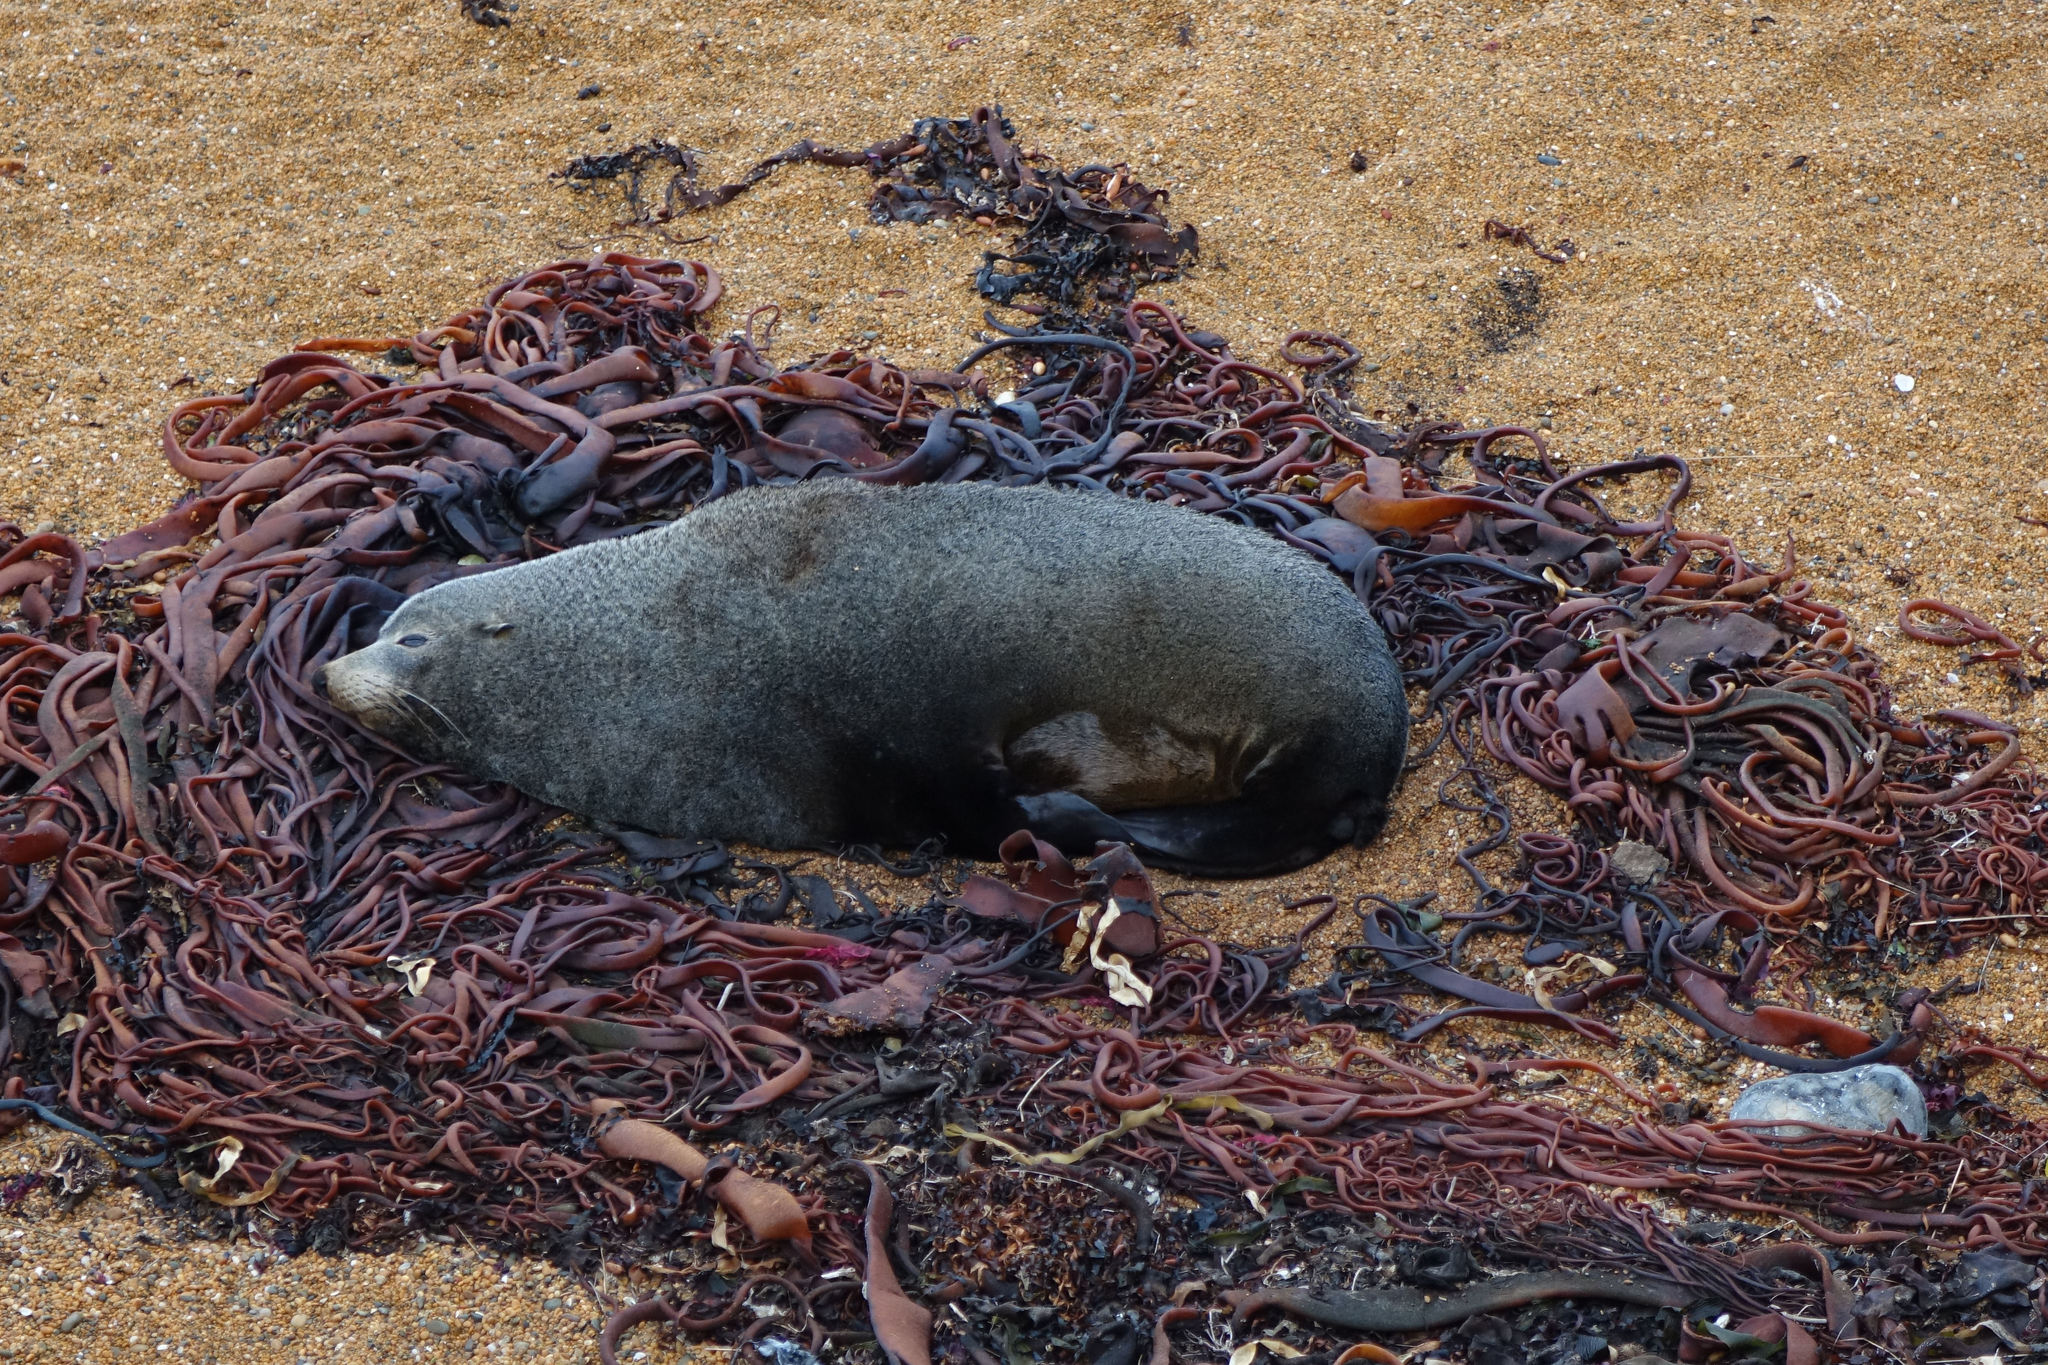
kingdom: Animalia
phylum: Chordata
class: Mammalia
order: Carnivora
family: Otariidae
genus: Arctocephalus
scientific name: Arctocephalus forsteri
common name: New zealand fur seal
